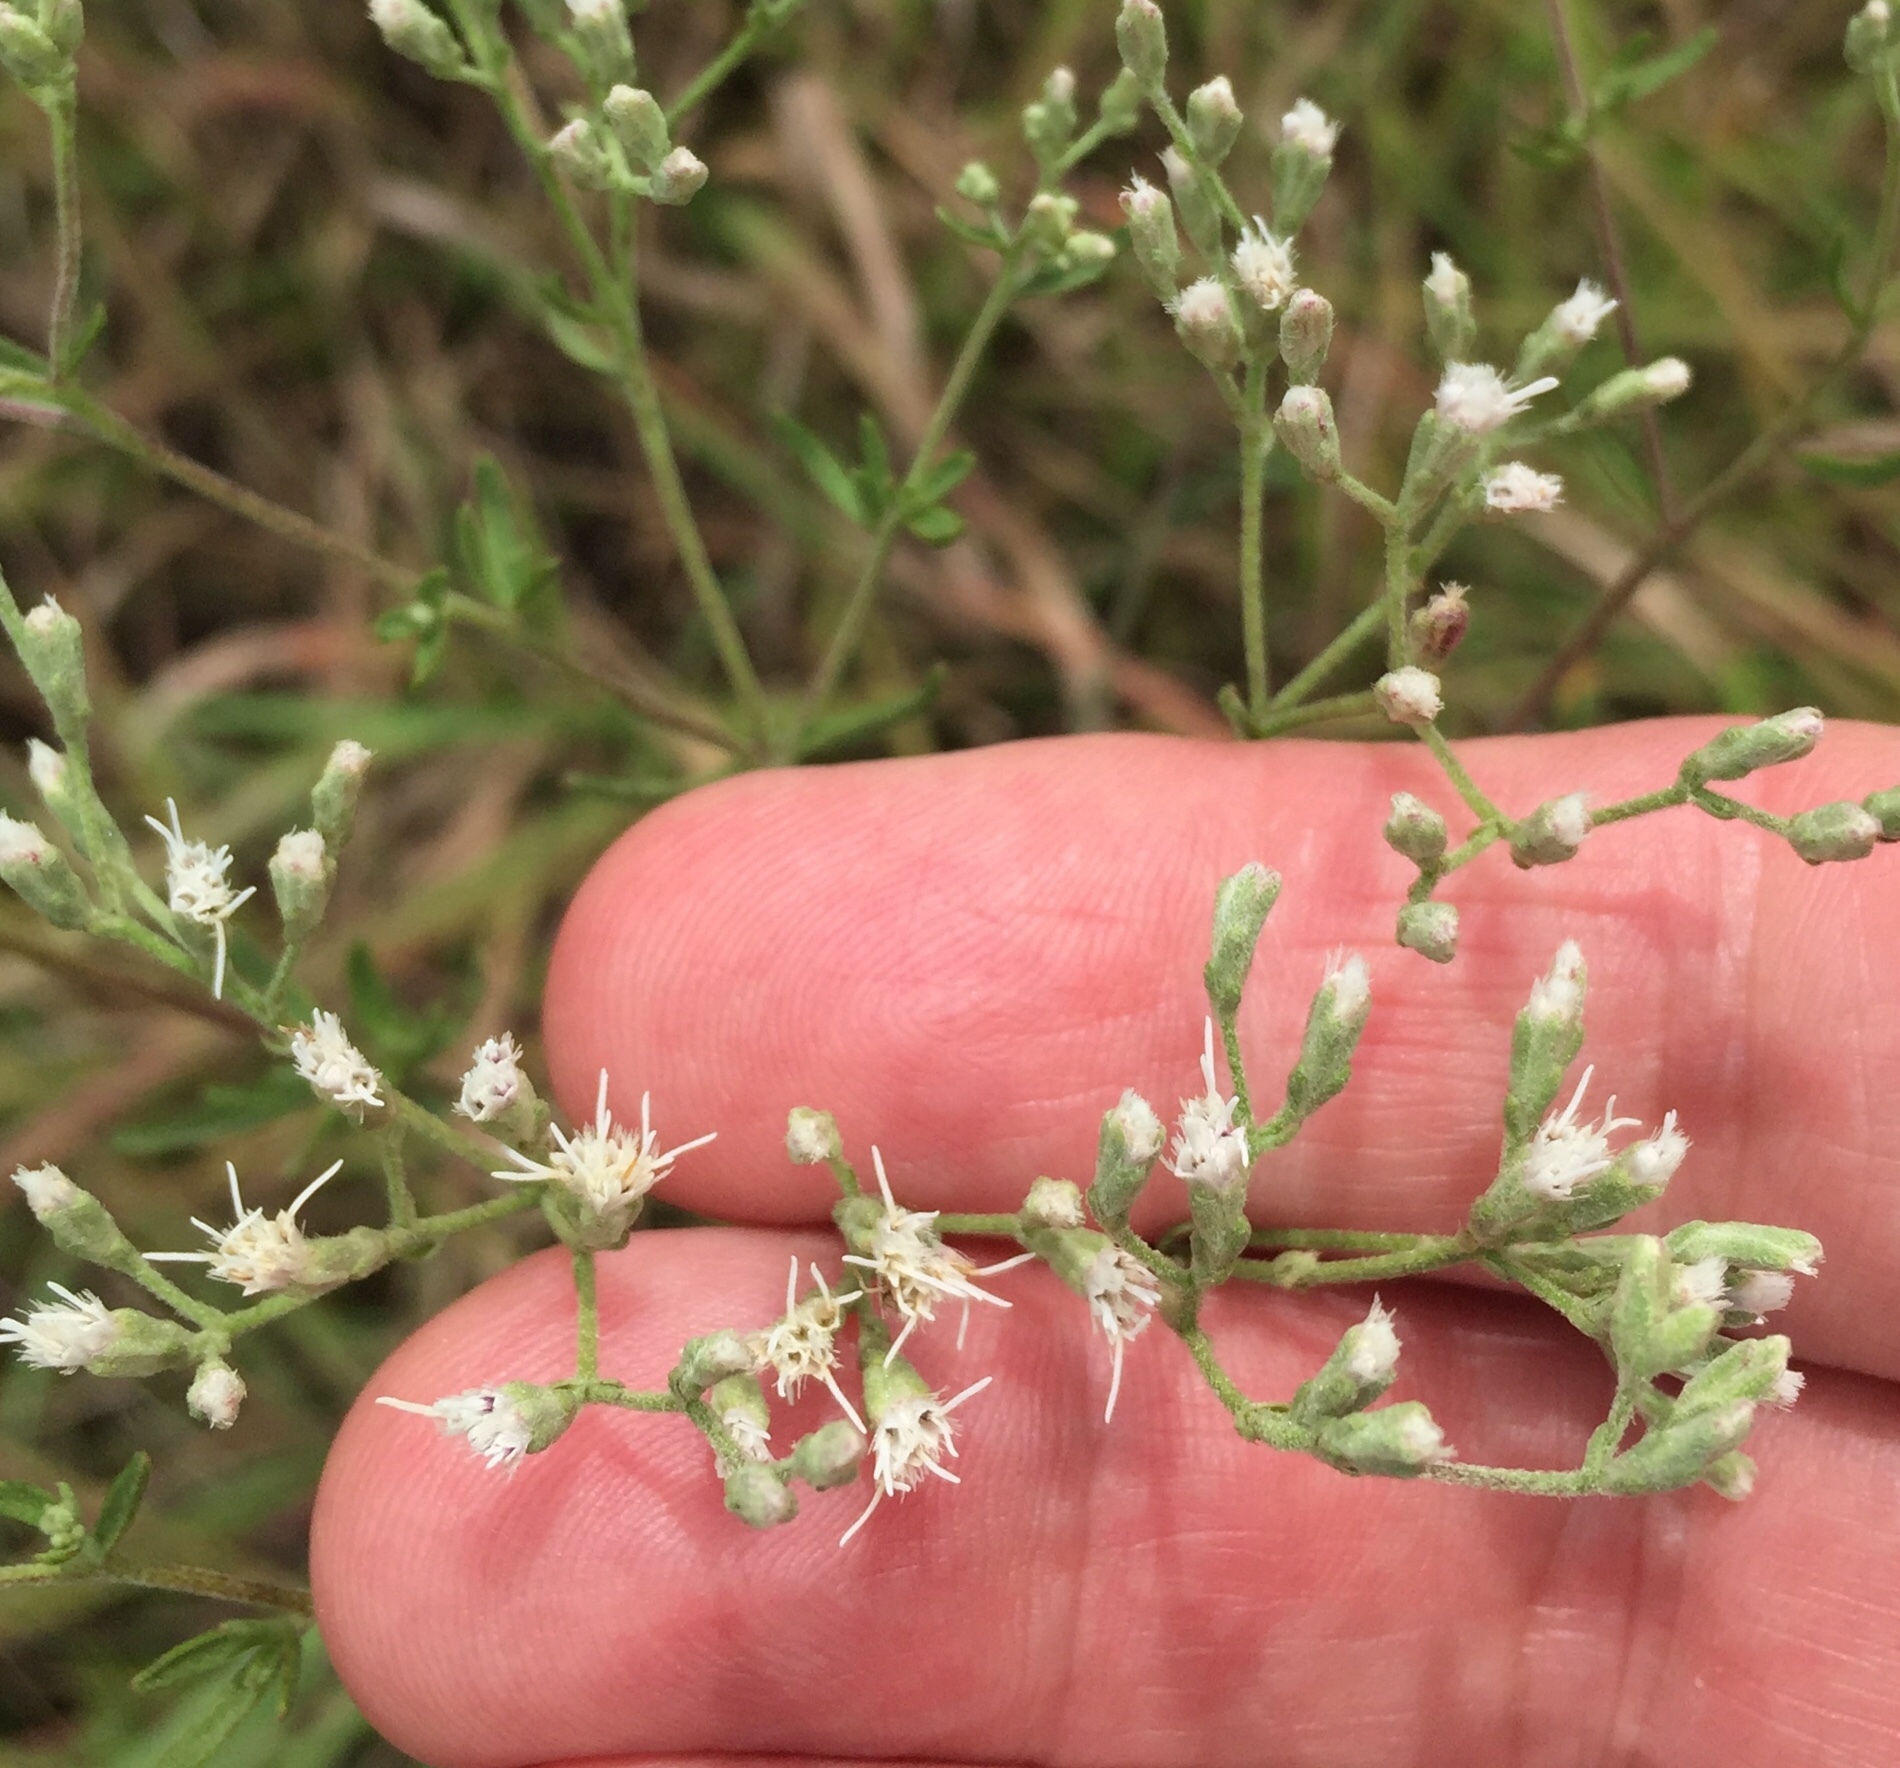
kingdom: Plantae
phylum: Tracheophyta
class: Magnoliopsida
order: Asterales
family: Asteraceae
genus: Eupatorium
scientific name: Eupatorium hyssopifolium
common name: Hyssop-leaf thoroughwort
